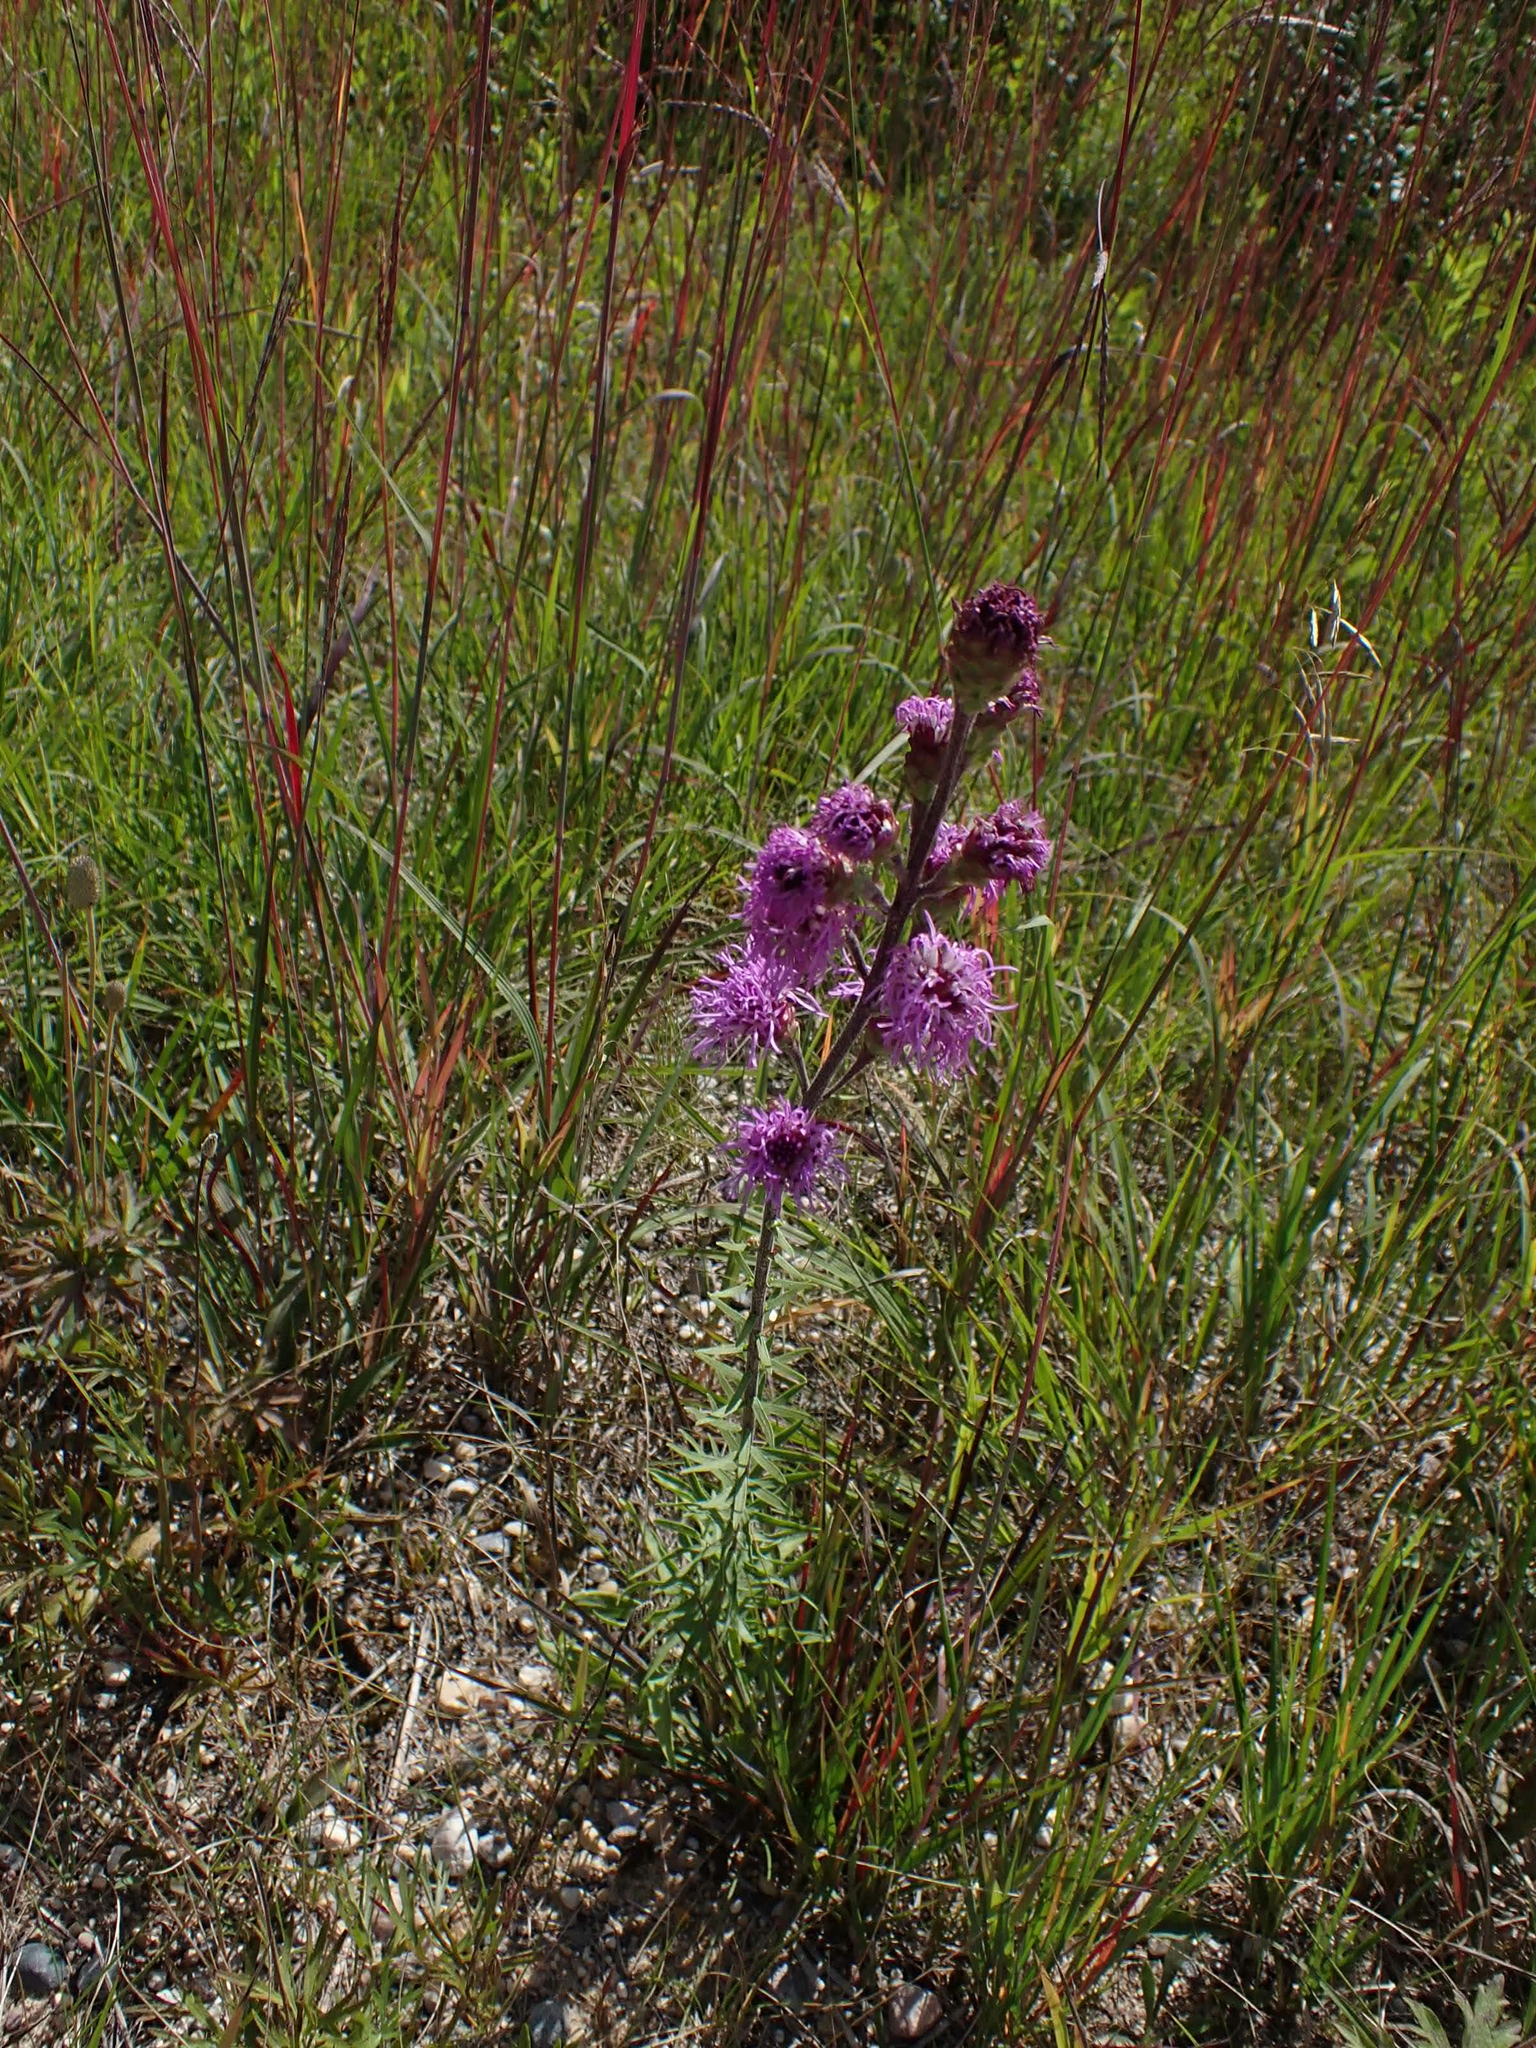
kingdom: Plantae
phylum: Tracheophyta
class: Magnoliopsida
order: Asterales
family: Asteraceae
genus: Liatris
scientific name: Liatris ligulistylis
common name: Northern plains gayfeather
